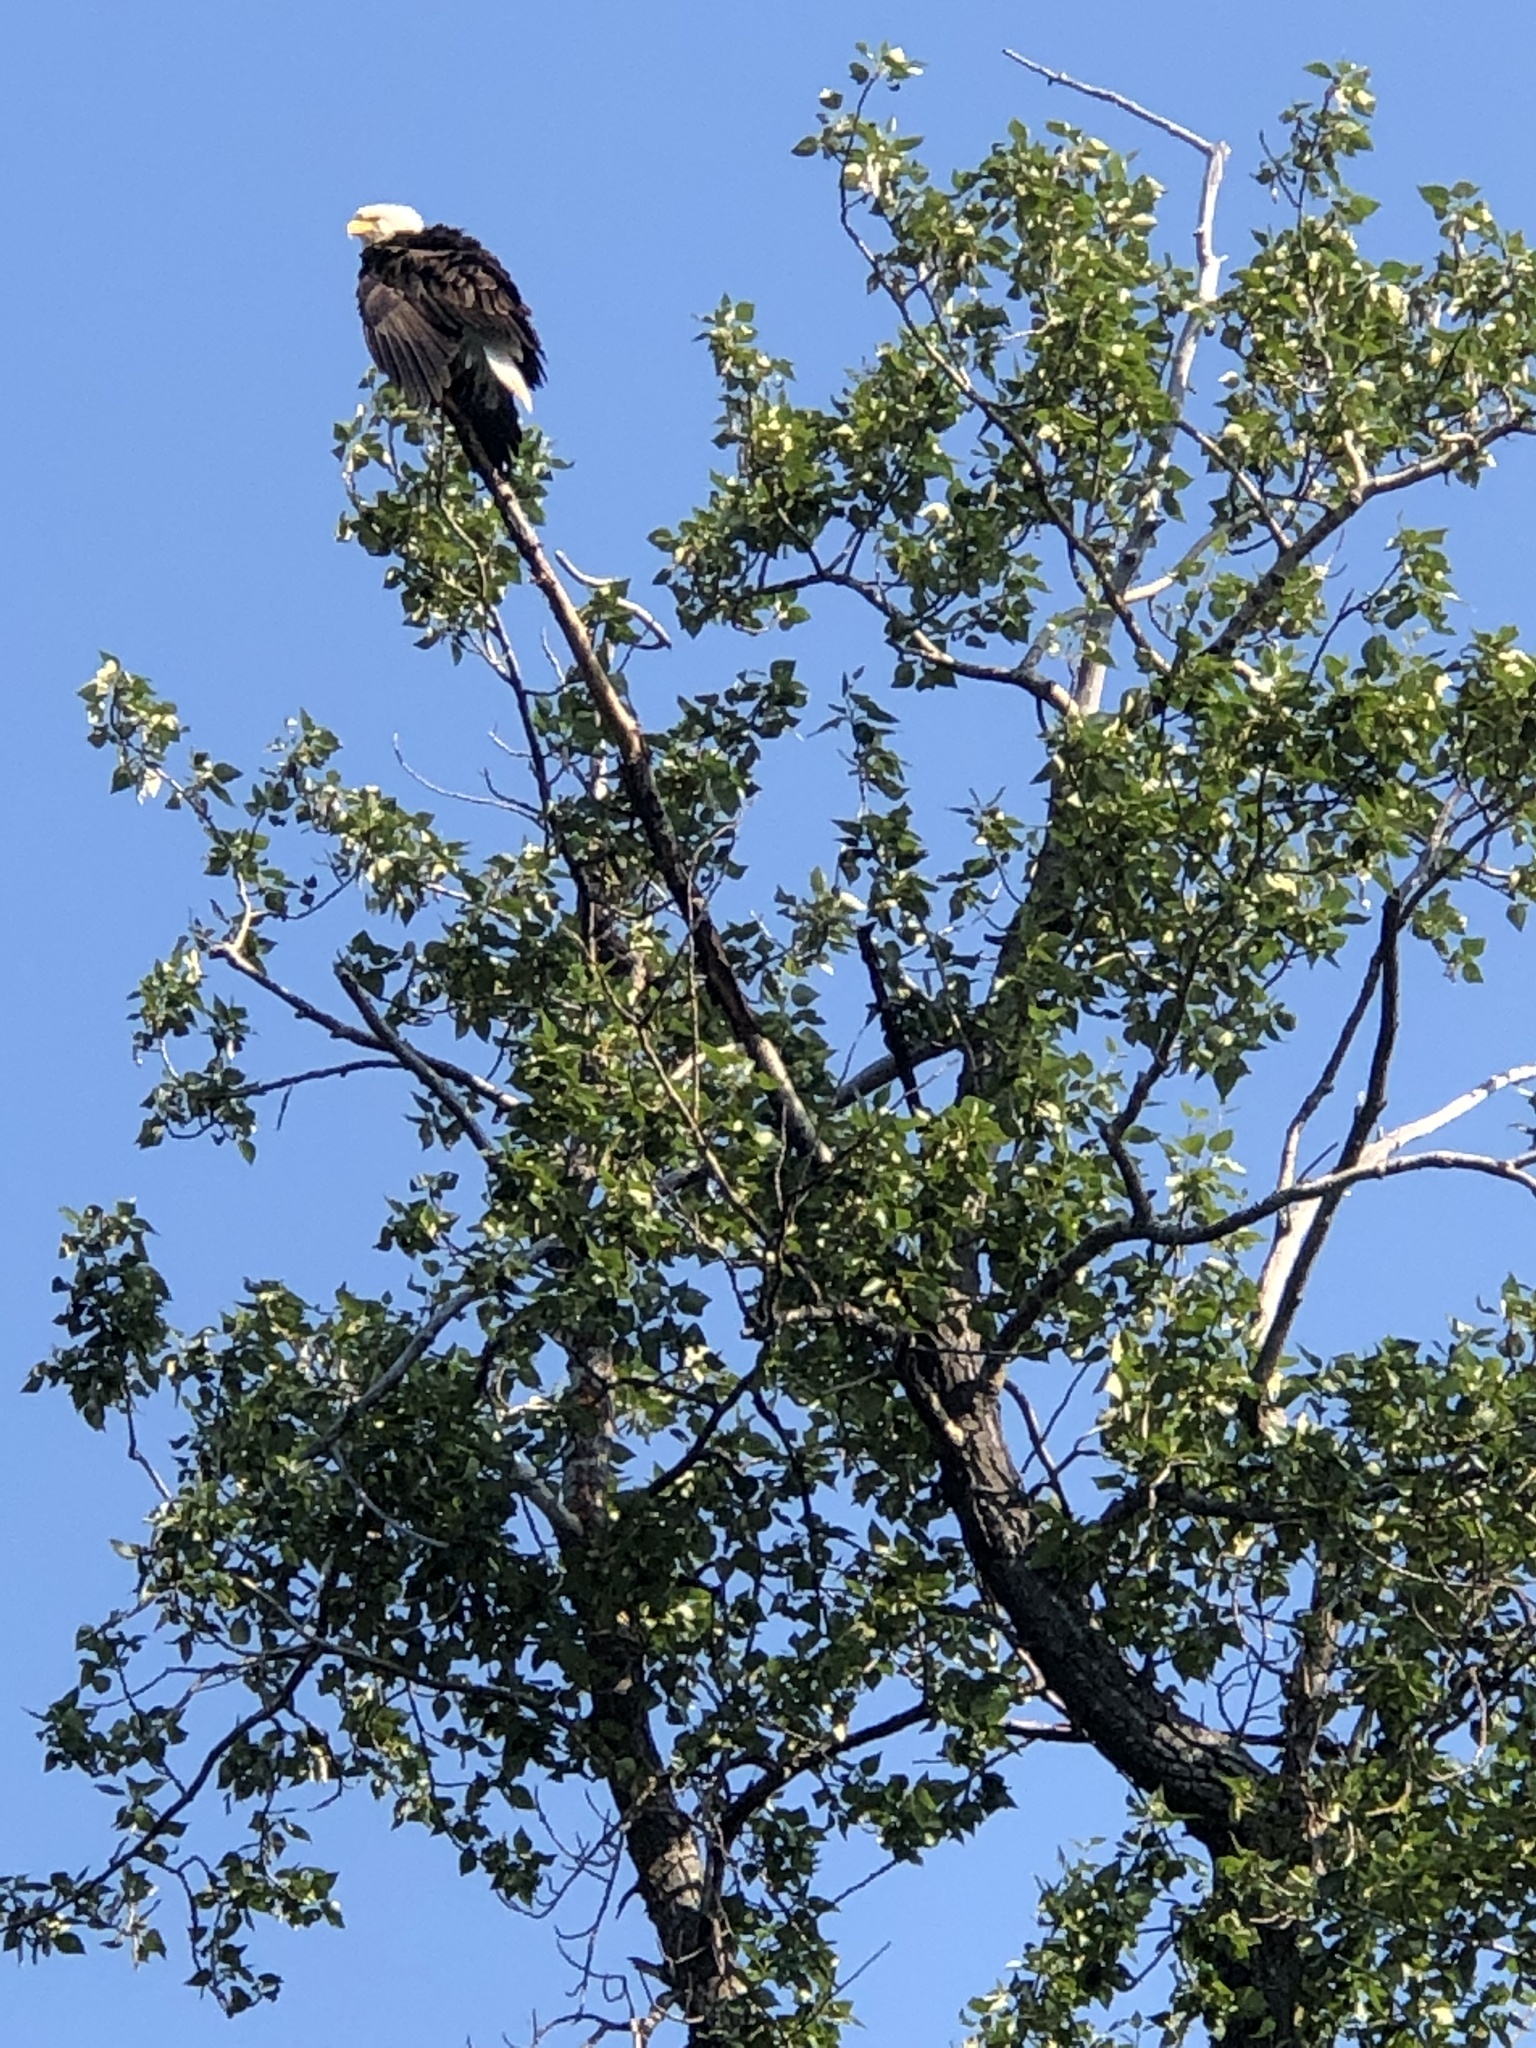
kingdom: Animalia
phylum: Chordata
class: Aves
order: Accipitriformes
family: Accipitridae
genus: Haliaeetus
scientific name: Haliaeetus leucocephalus
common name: Bald eagle
